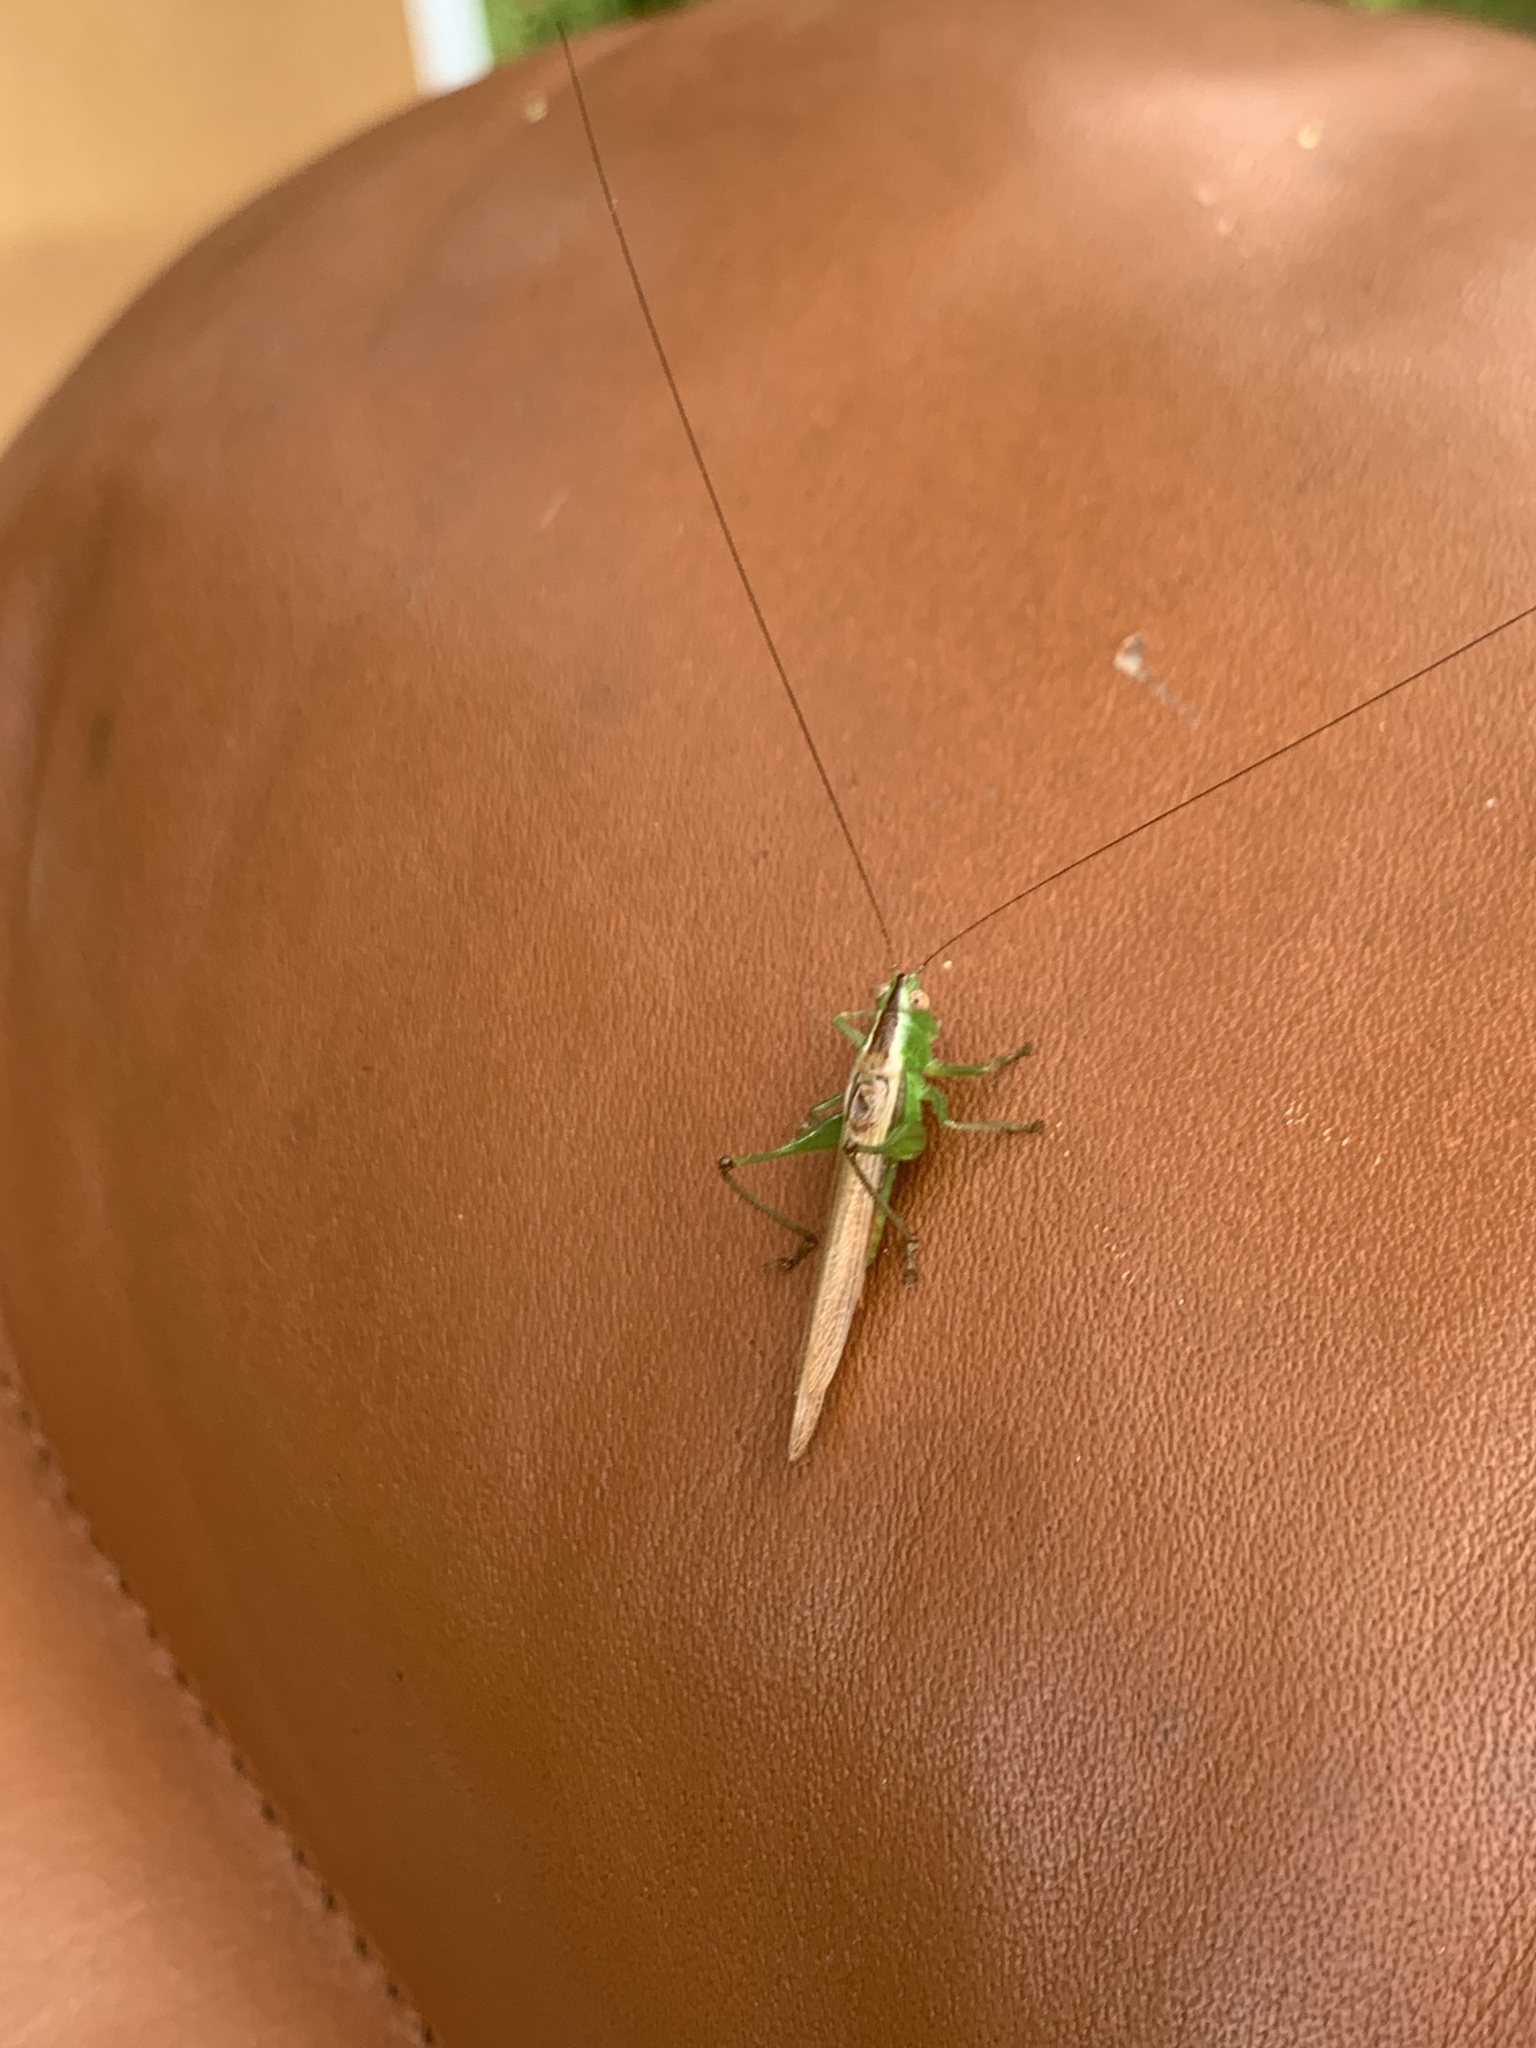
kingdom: Animalia
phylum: Arthropoda
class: Insecta
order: Orthoptera
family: Tettigoniidae
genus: Conocephalus
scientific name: Conocephalus brevipennis
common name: Short-winged meadow katydid
